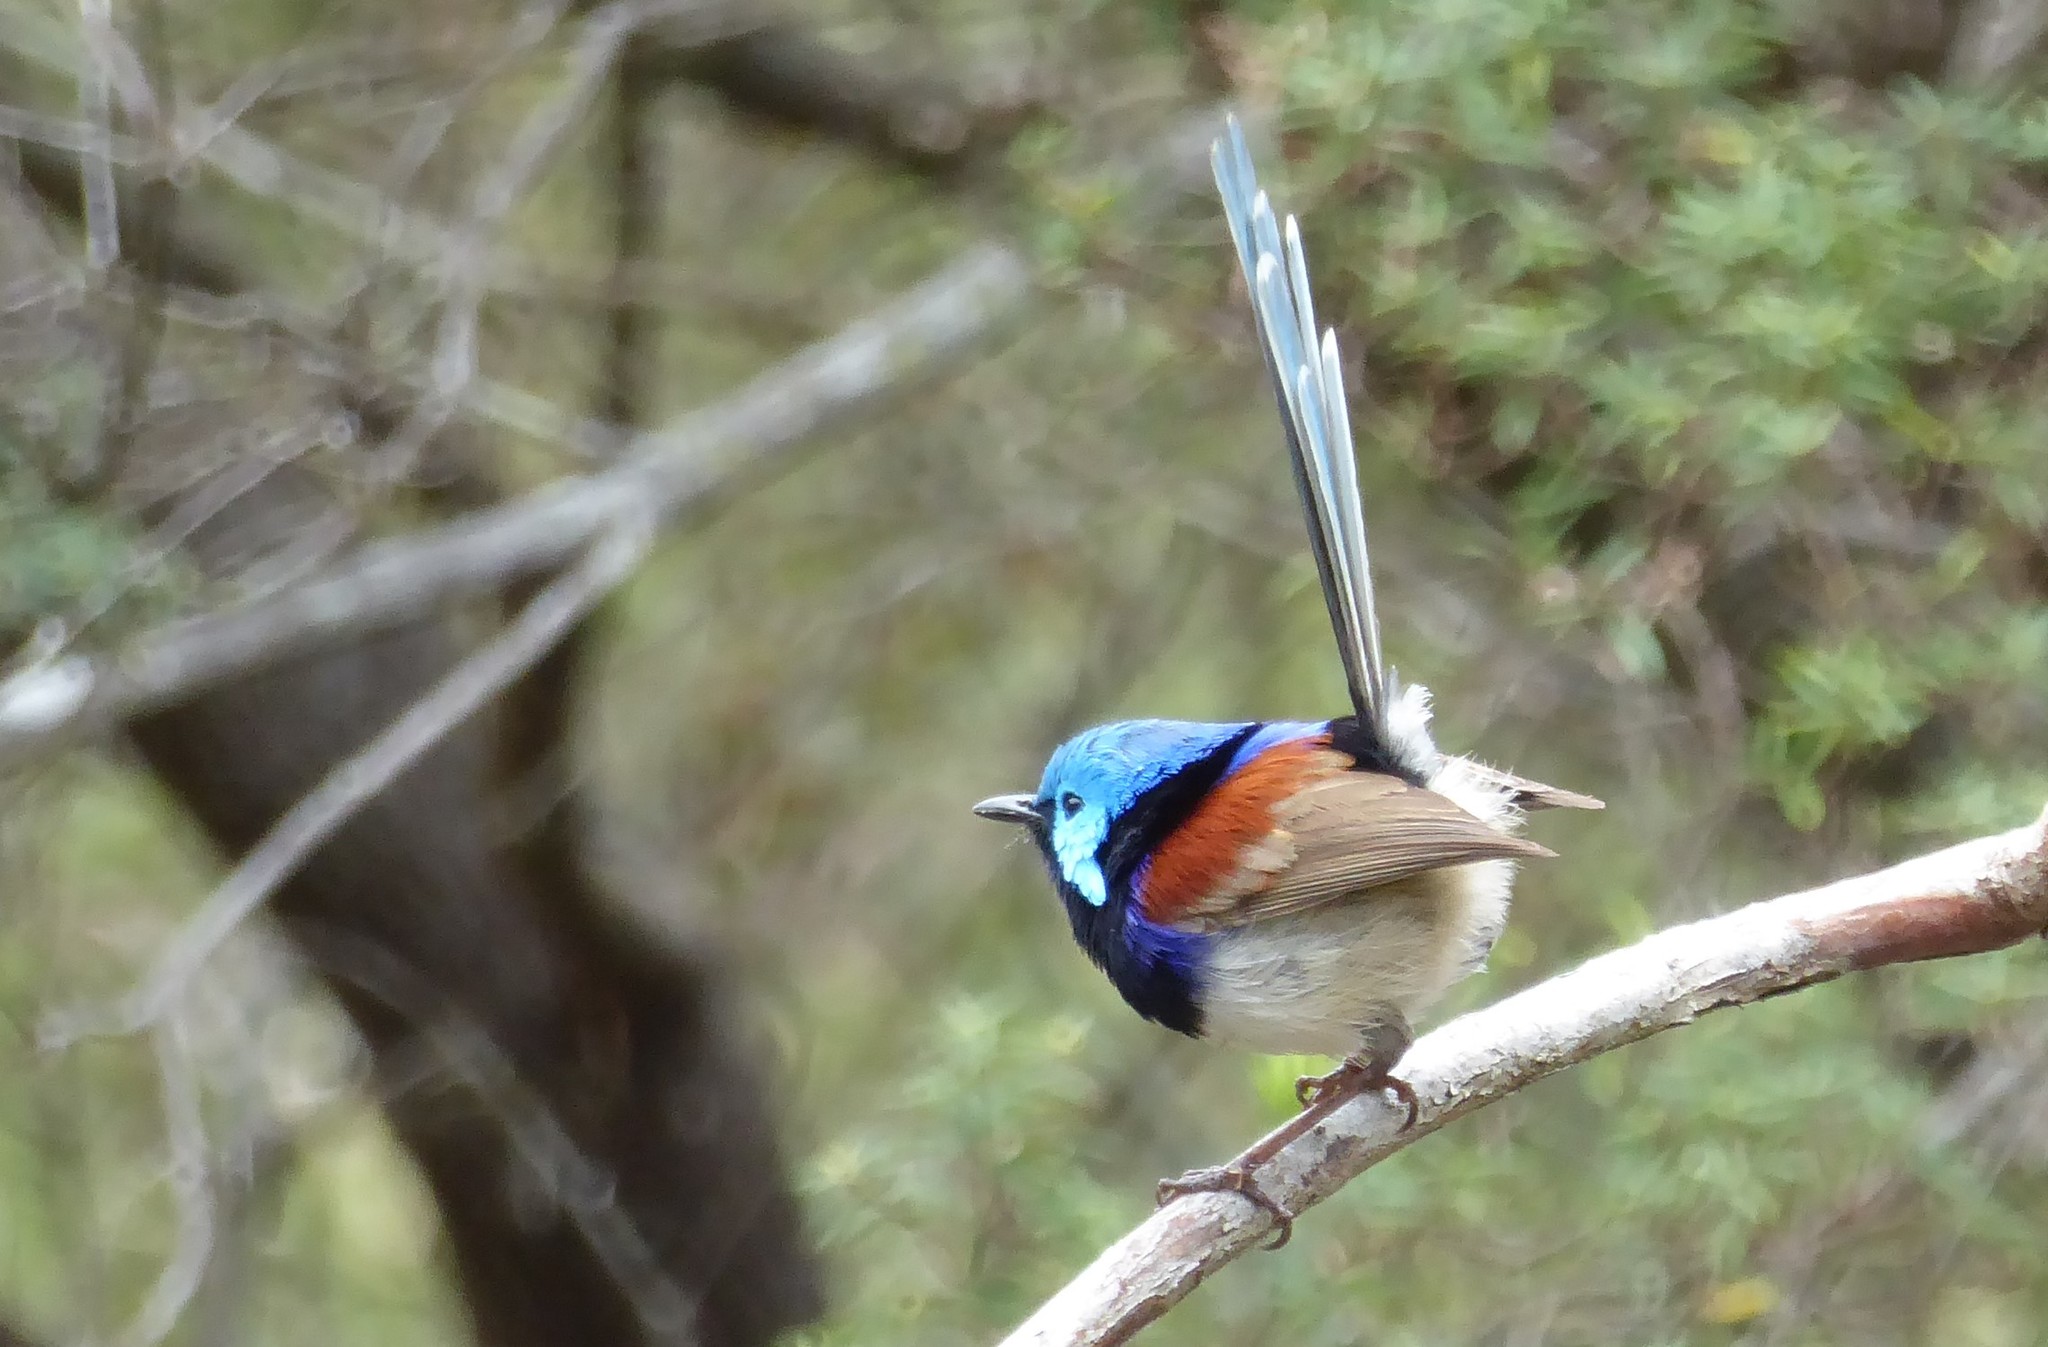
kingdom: Animalia
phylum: Chordata
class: Aves
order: Passeriformes
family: Maluridae
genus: Malurus
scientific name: Malurus lamberti
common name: Variegated fairywren
